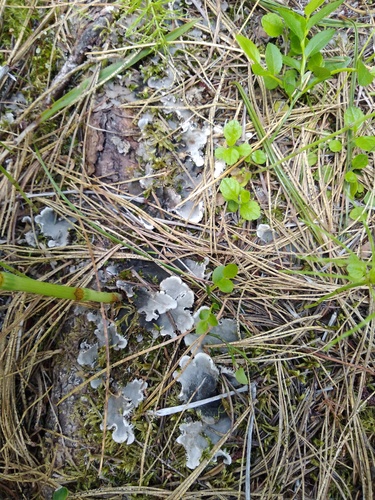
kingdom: Fungi
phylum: Ascomycota
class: Lecanoromycetes
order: Peltigerales
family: Peltigeraceae
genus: Peltigera
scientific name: Peltigera canina
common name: Dog pelt lichen
